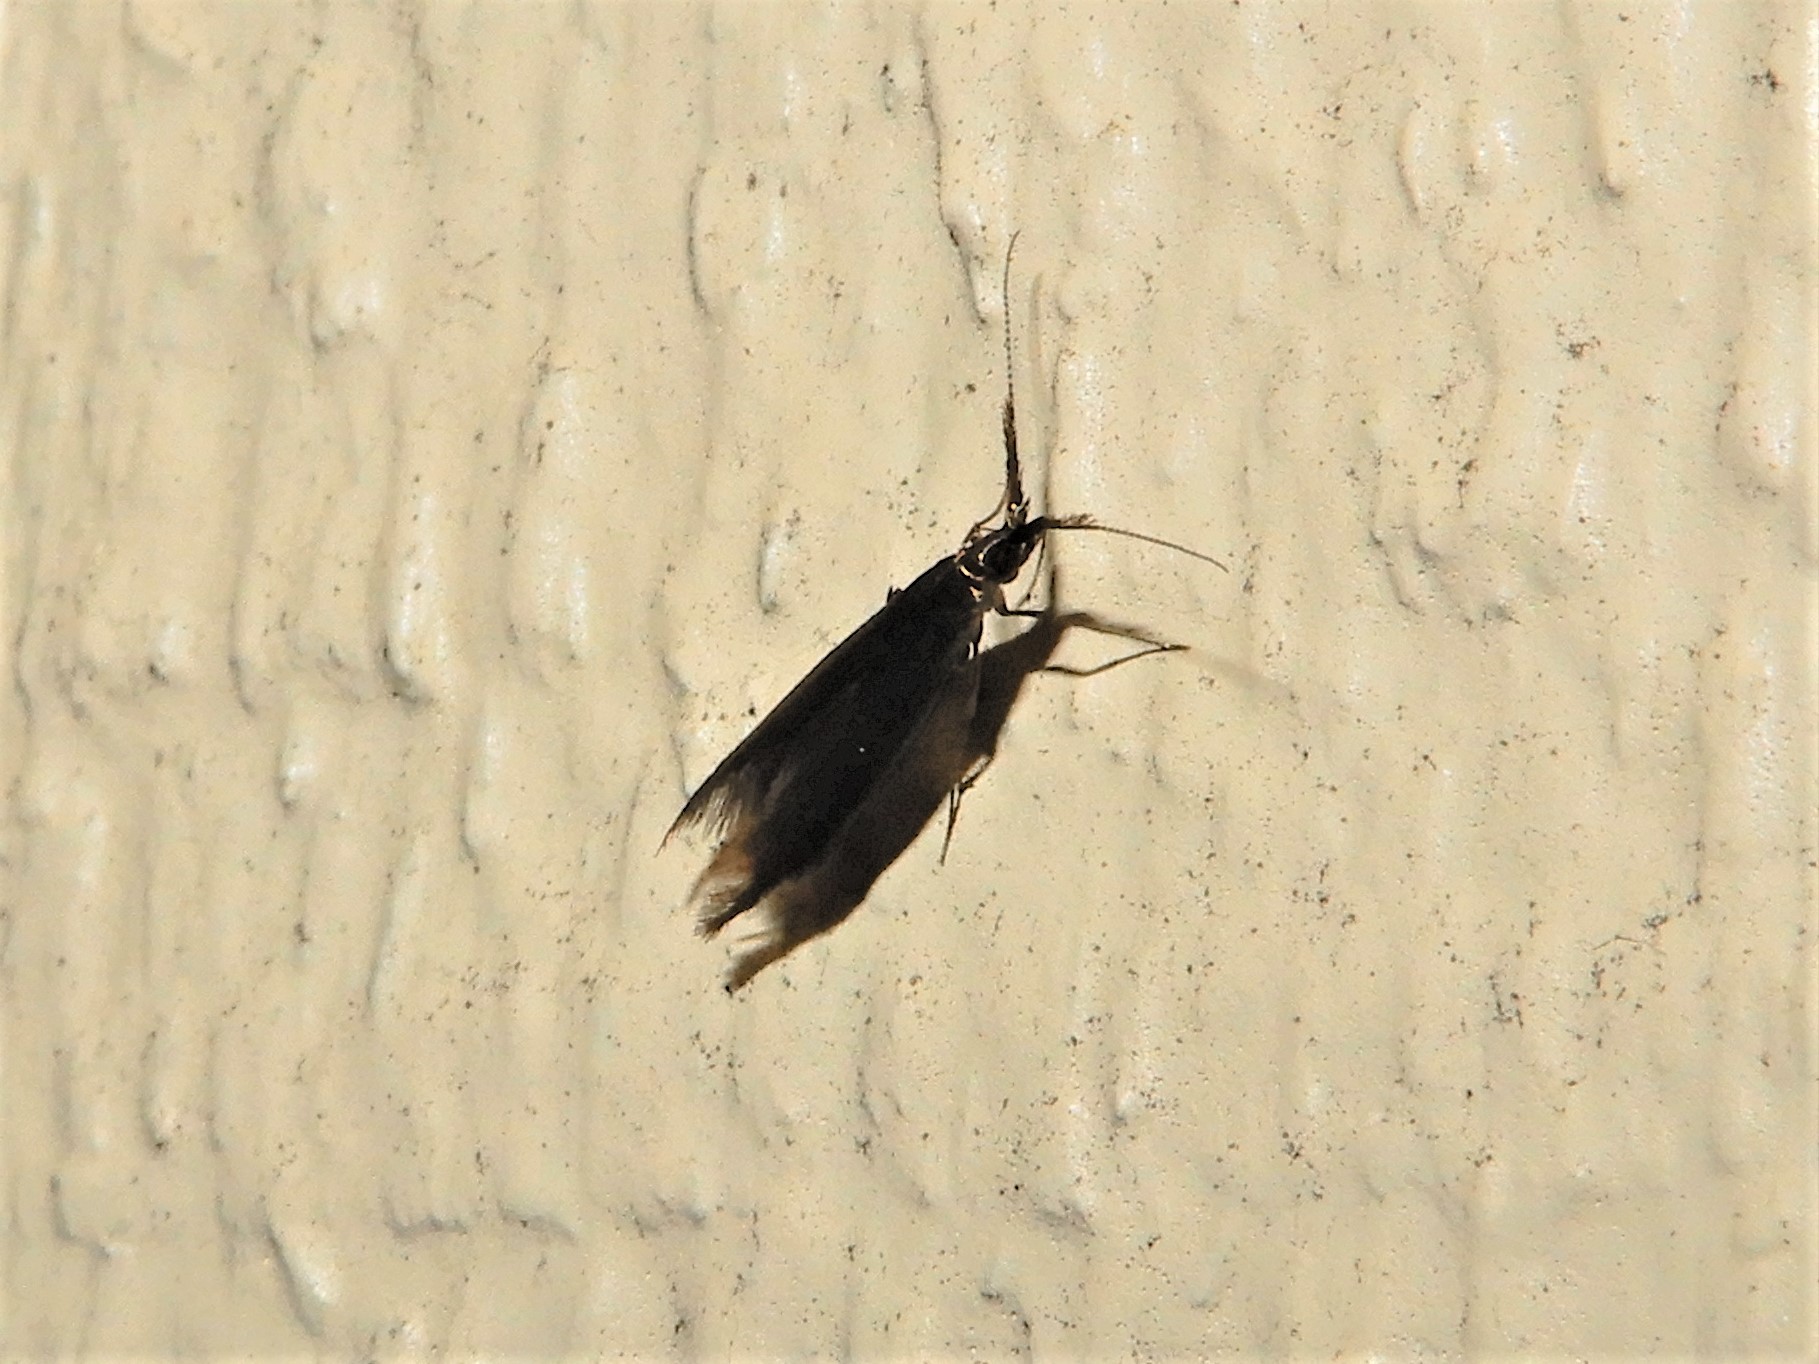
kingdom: Animalia
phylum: Arthropoda
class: Insecta
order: Lepidoptera
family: Coleophoridae
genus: Coleophora
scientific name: Coleophora mayrella
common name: Meadow case-bearer
